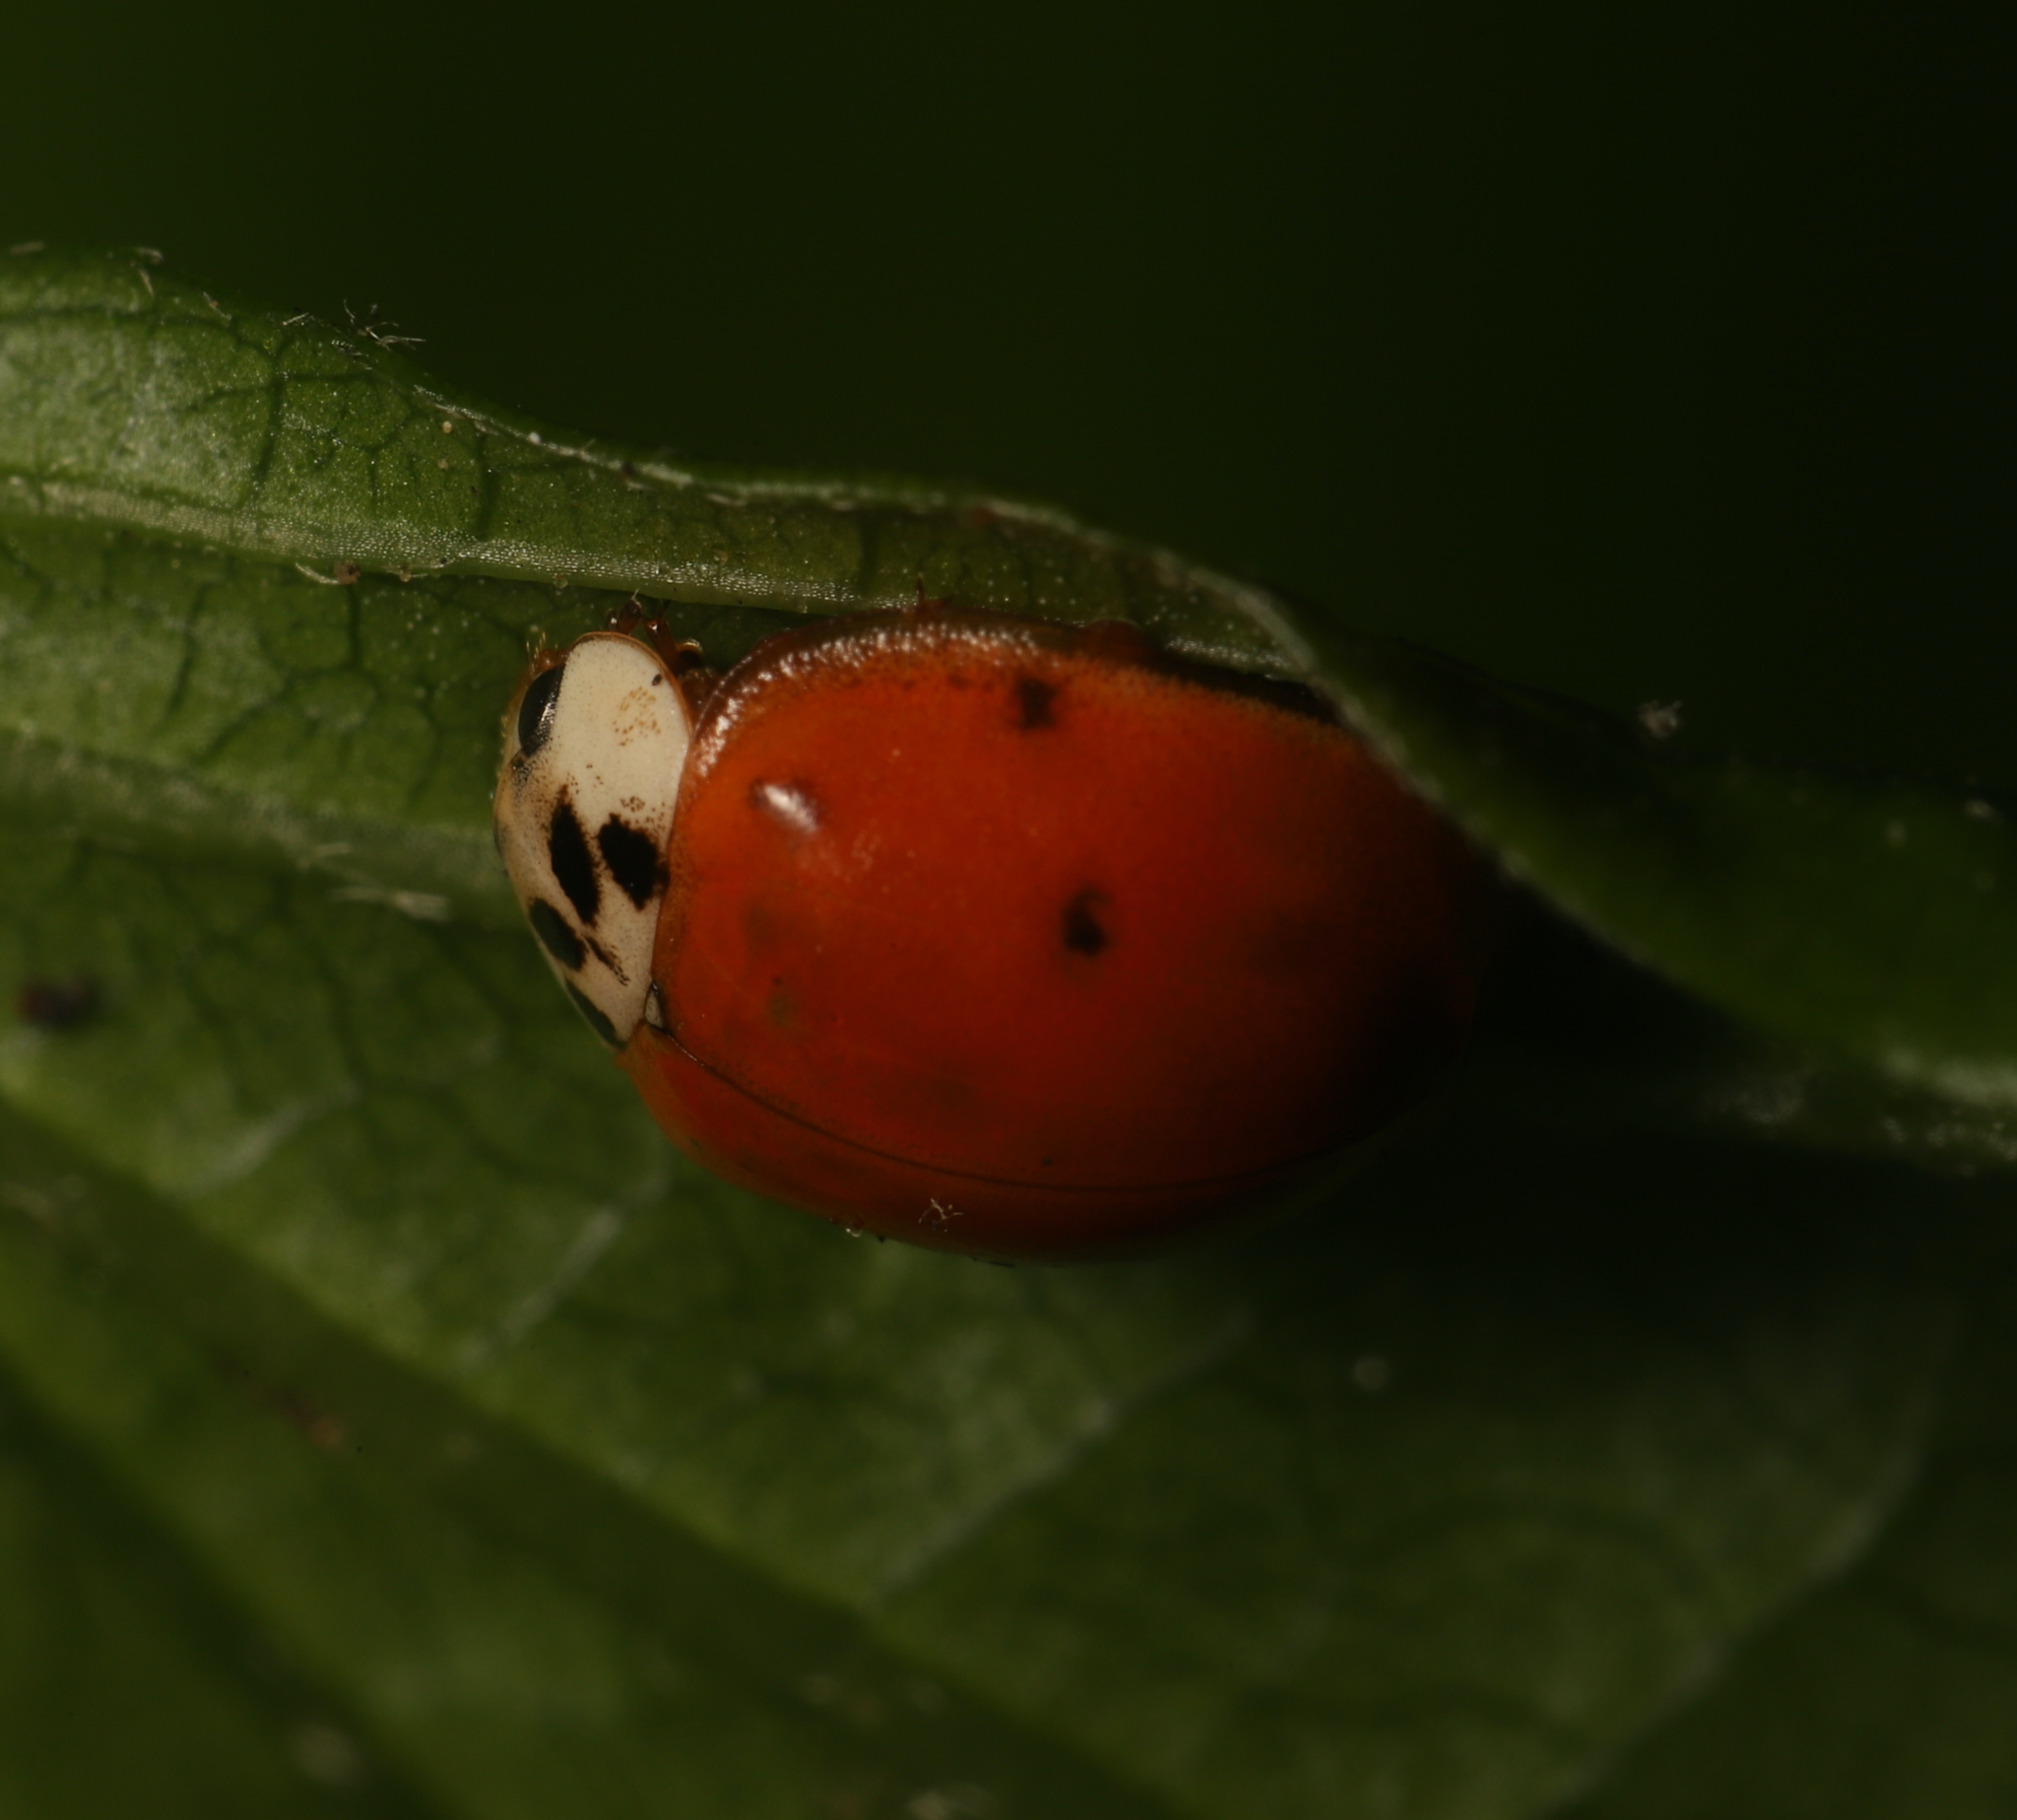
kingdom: Animalia
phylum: Arthropoda
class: Insecta
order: Coleoptera
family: Coccinellidae
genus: Harmonia
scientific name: Harmonia axyridis
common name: Harlequin ladybird
